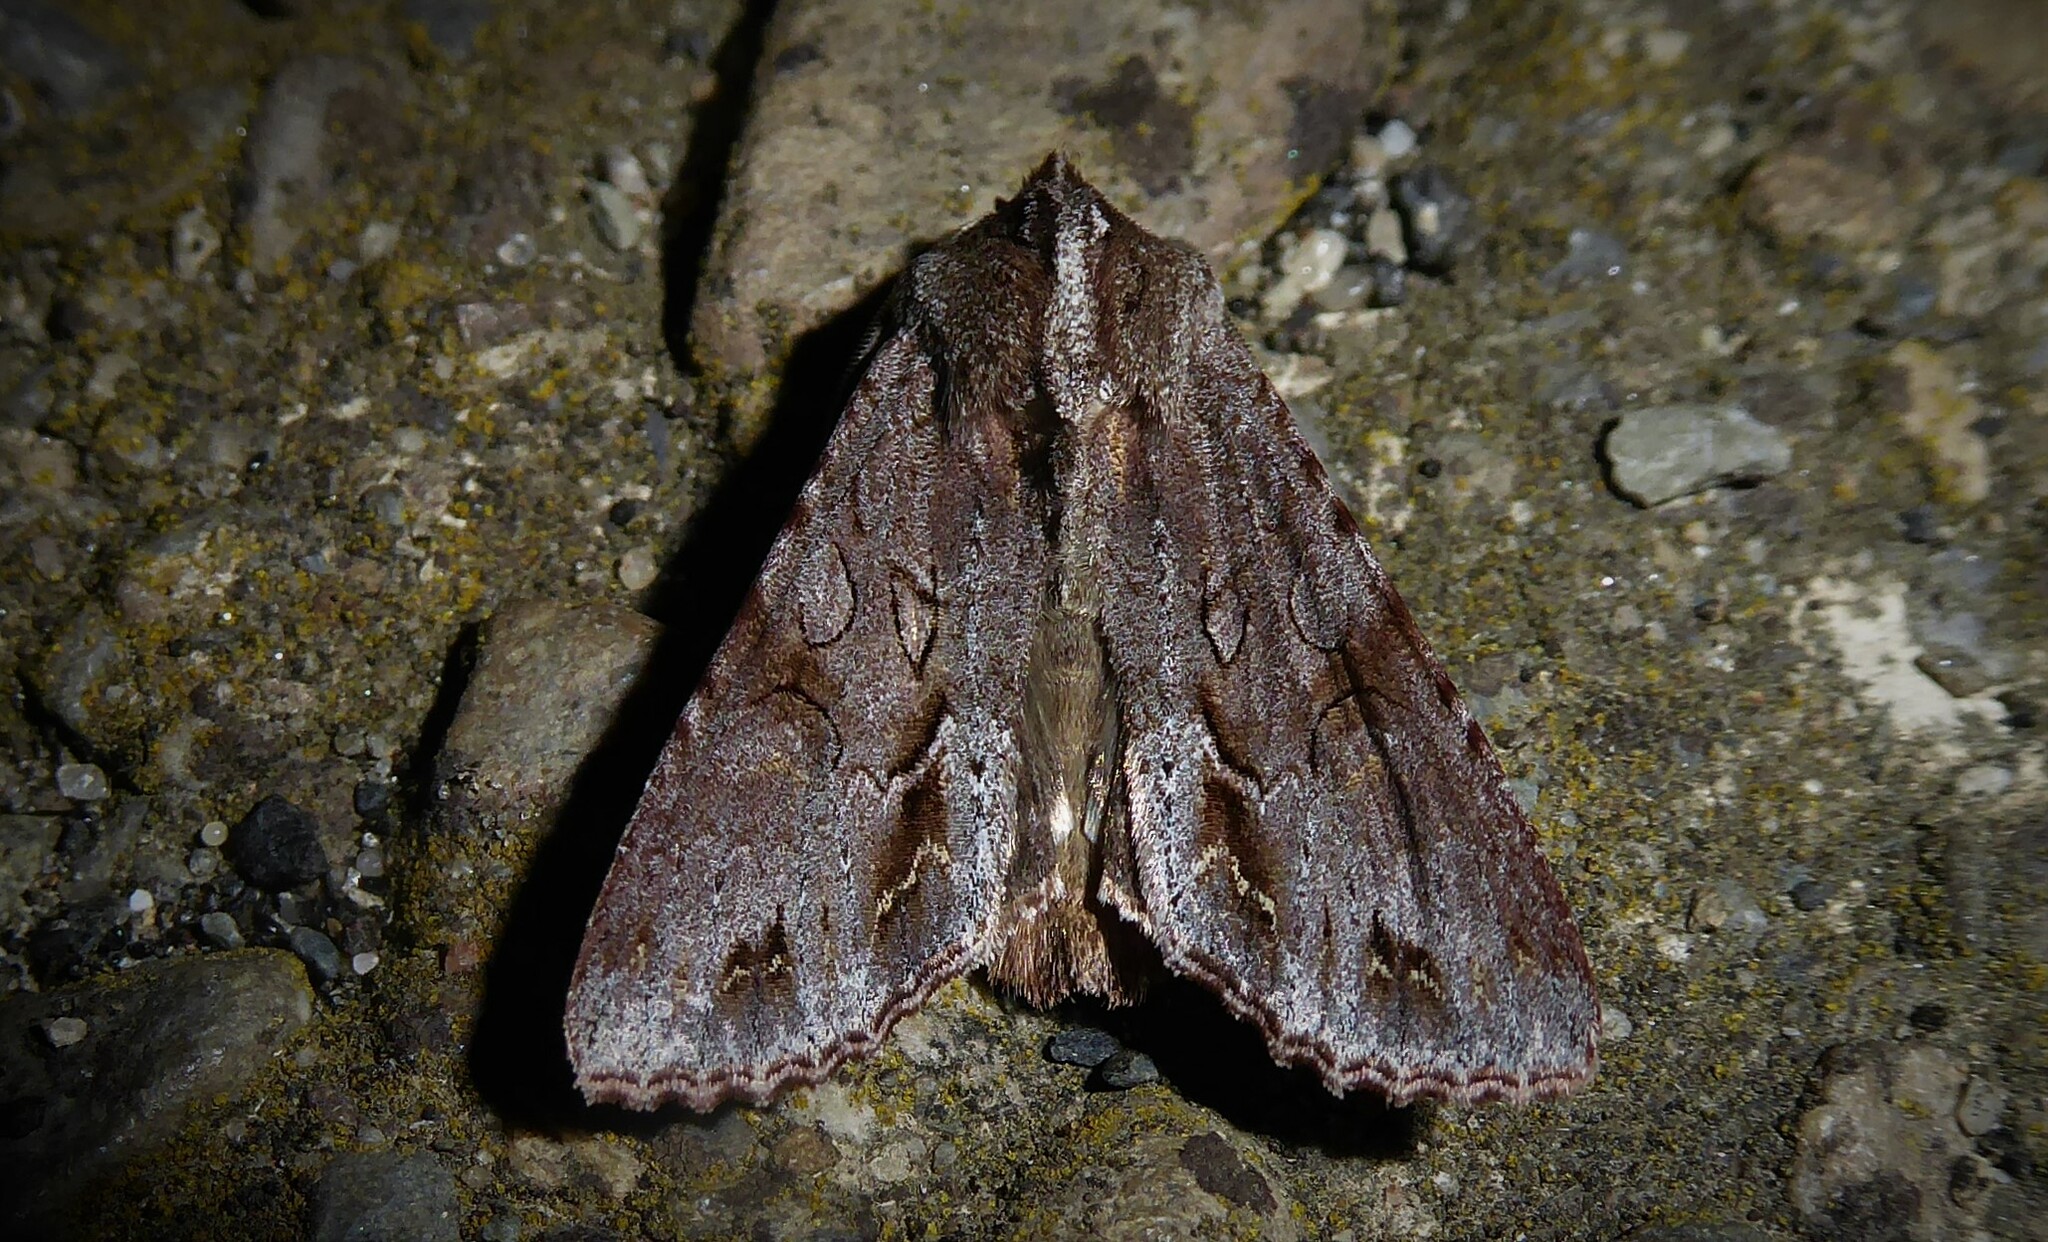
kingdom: Animalia
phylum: Arthropoda
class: Insecta
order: Lepidoptera
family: Noctuidae
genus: Ichneutica
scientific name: Ichneutica
